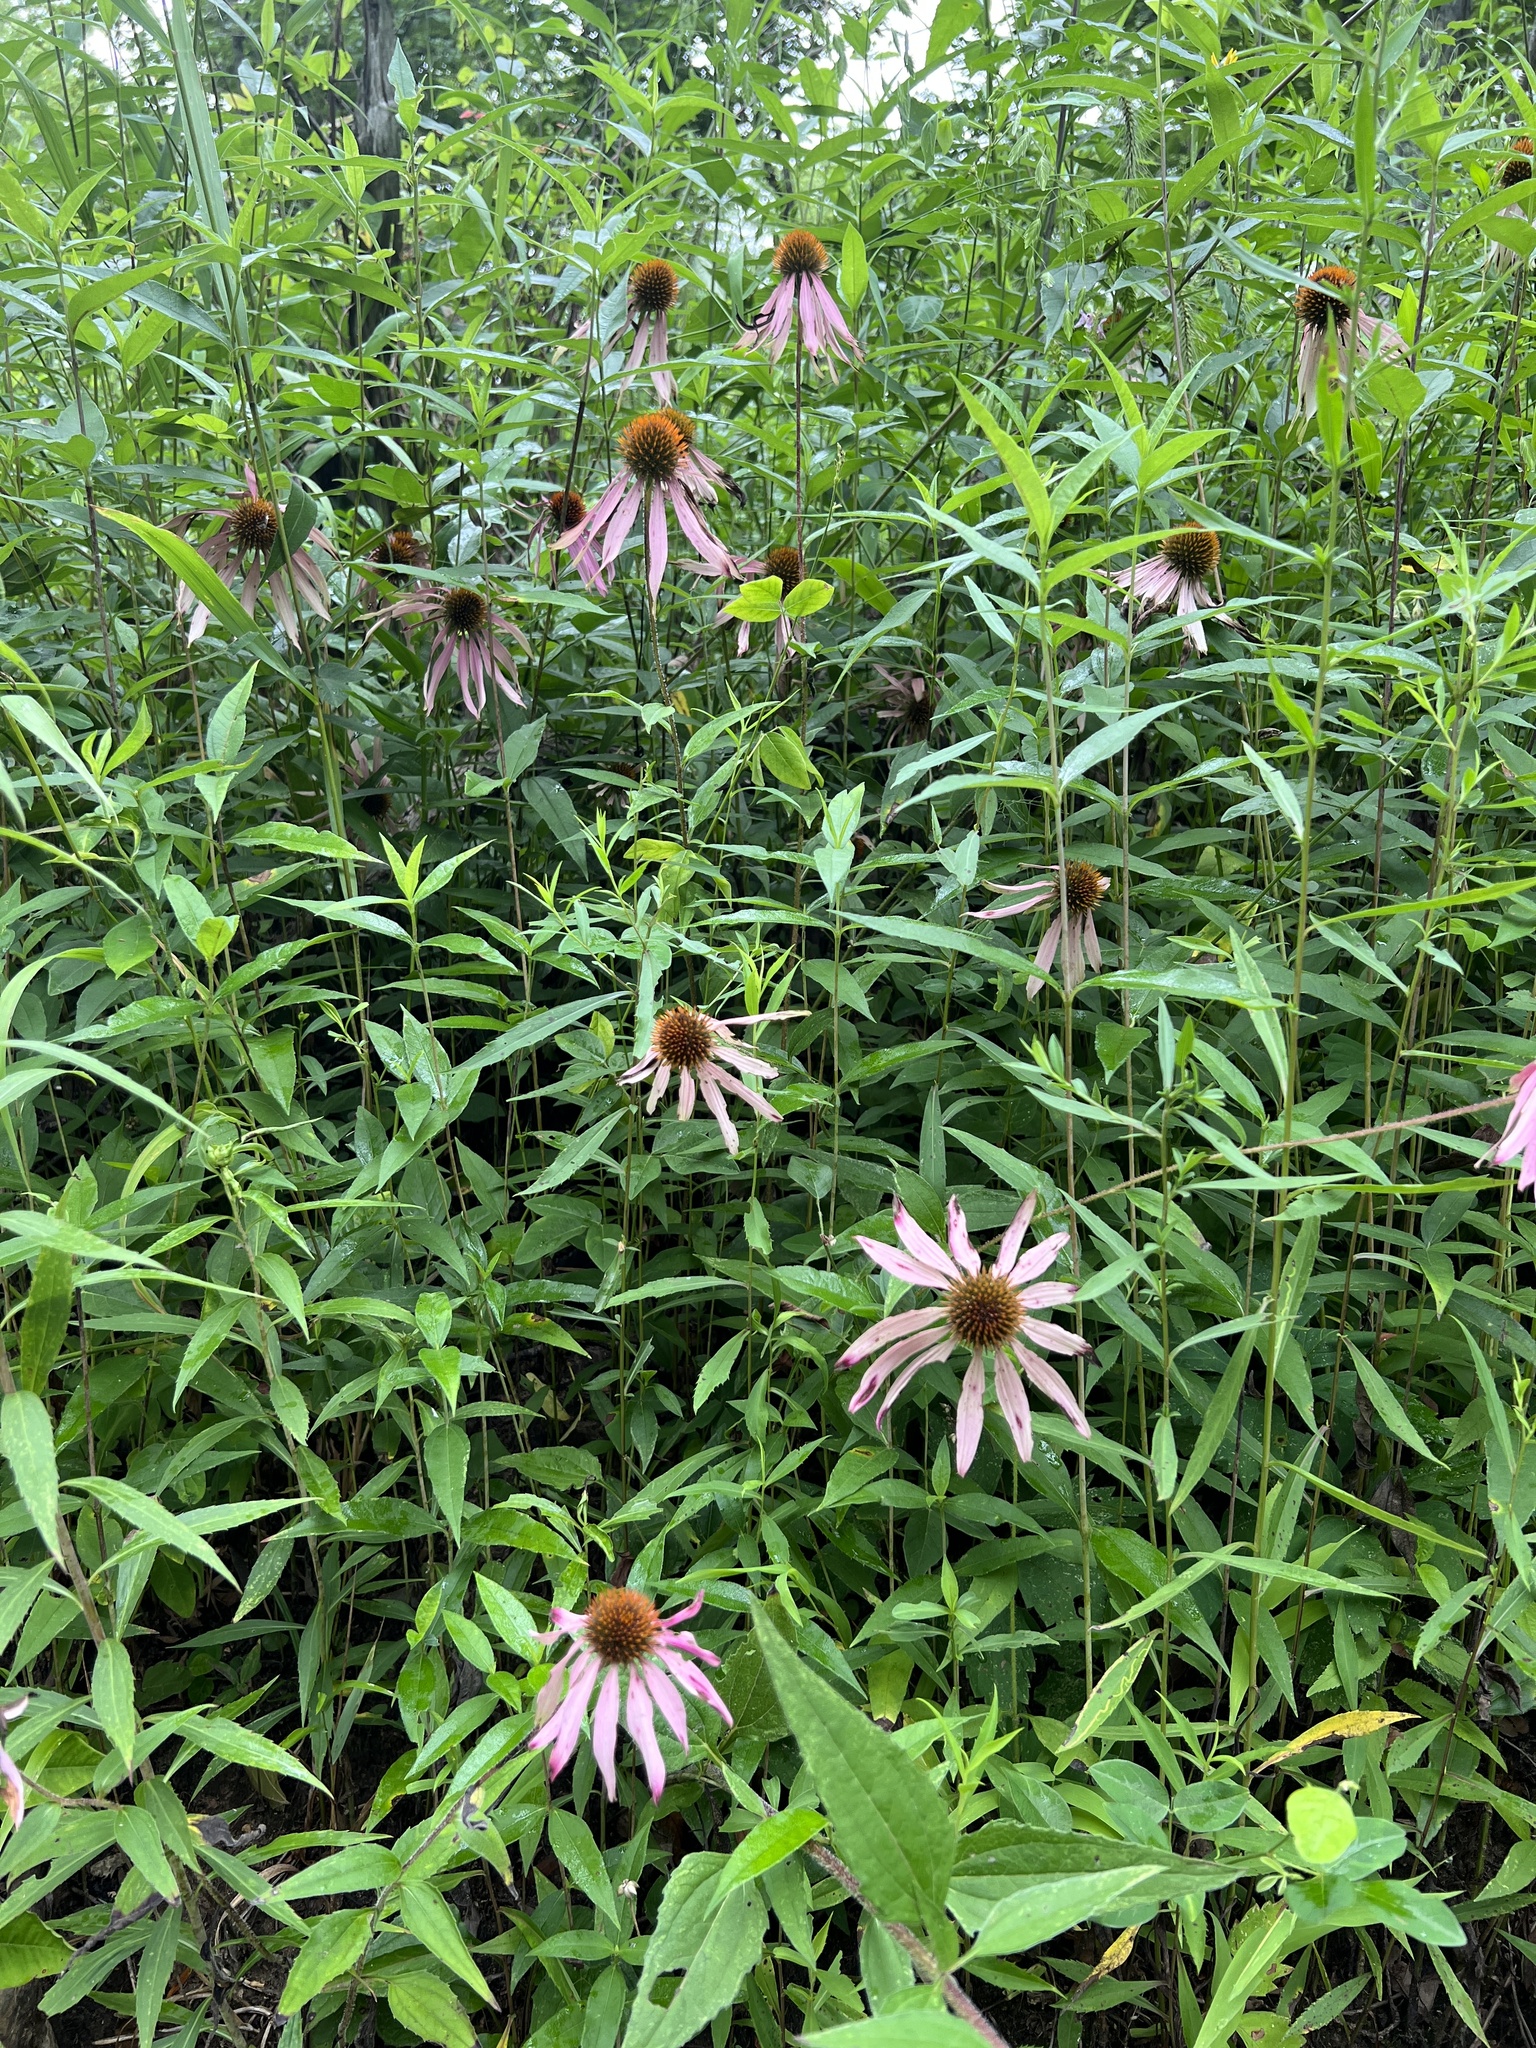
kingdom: Plantae
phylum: Tracheophyta
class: Magnoliopsida
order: Asterales
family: Asteraceae
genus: Echinacea
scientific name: Echinacea purpurea
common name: Broad-leaved purple coneflower
